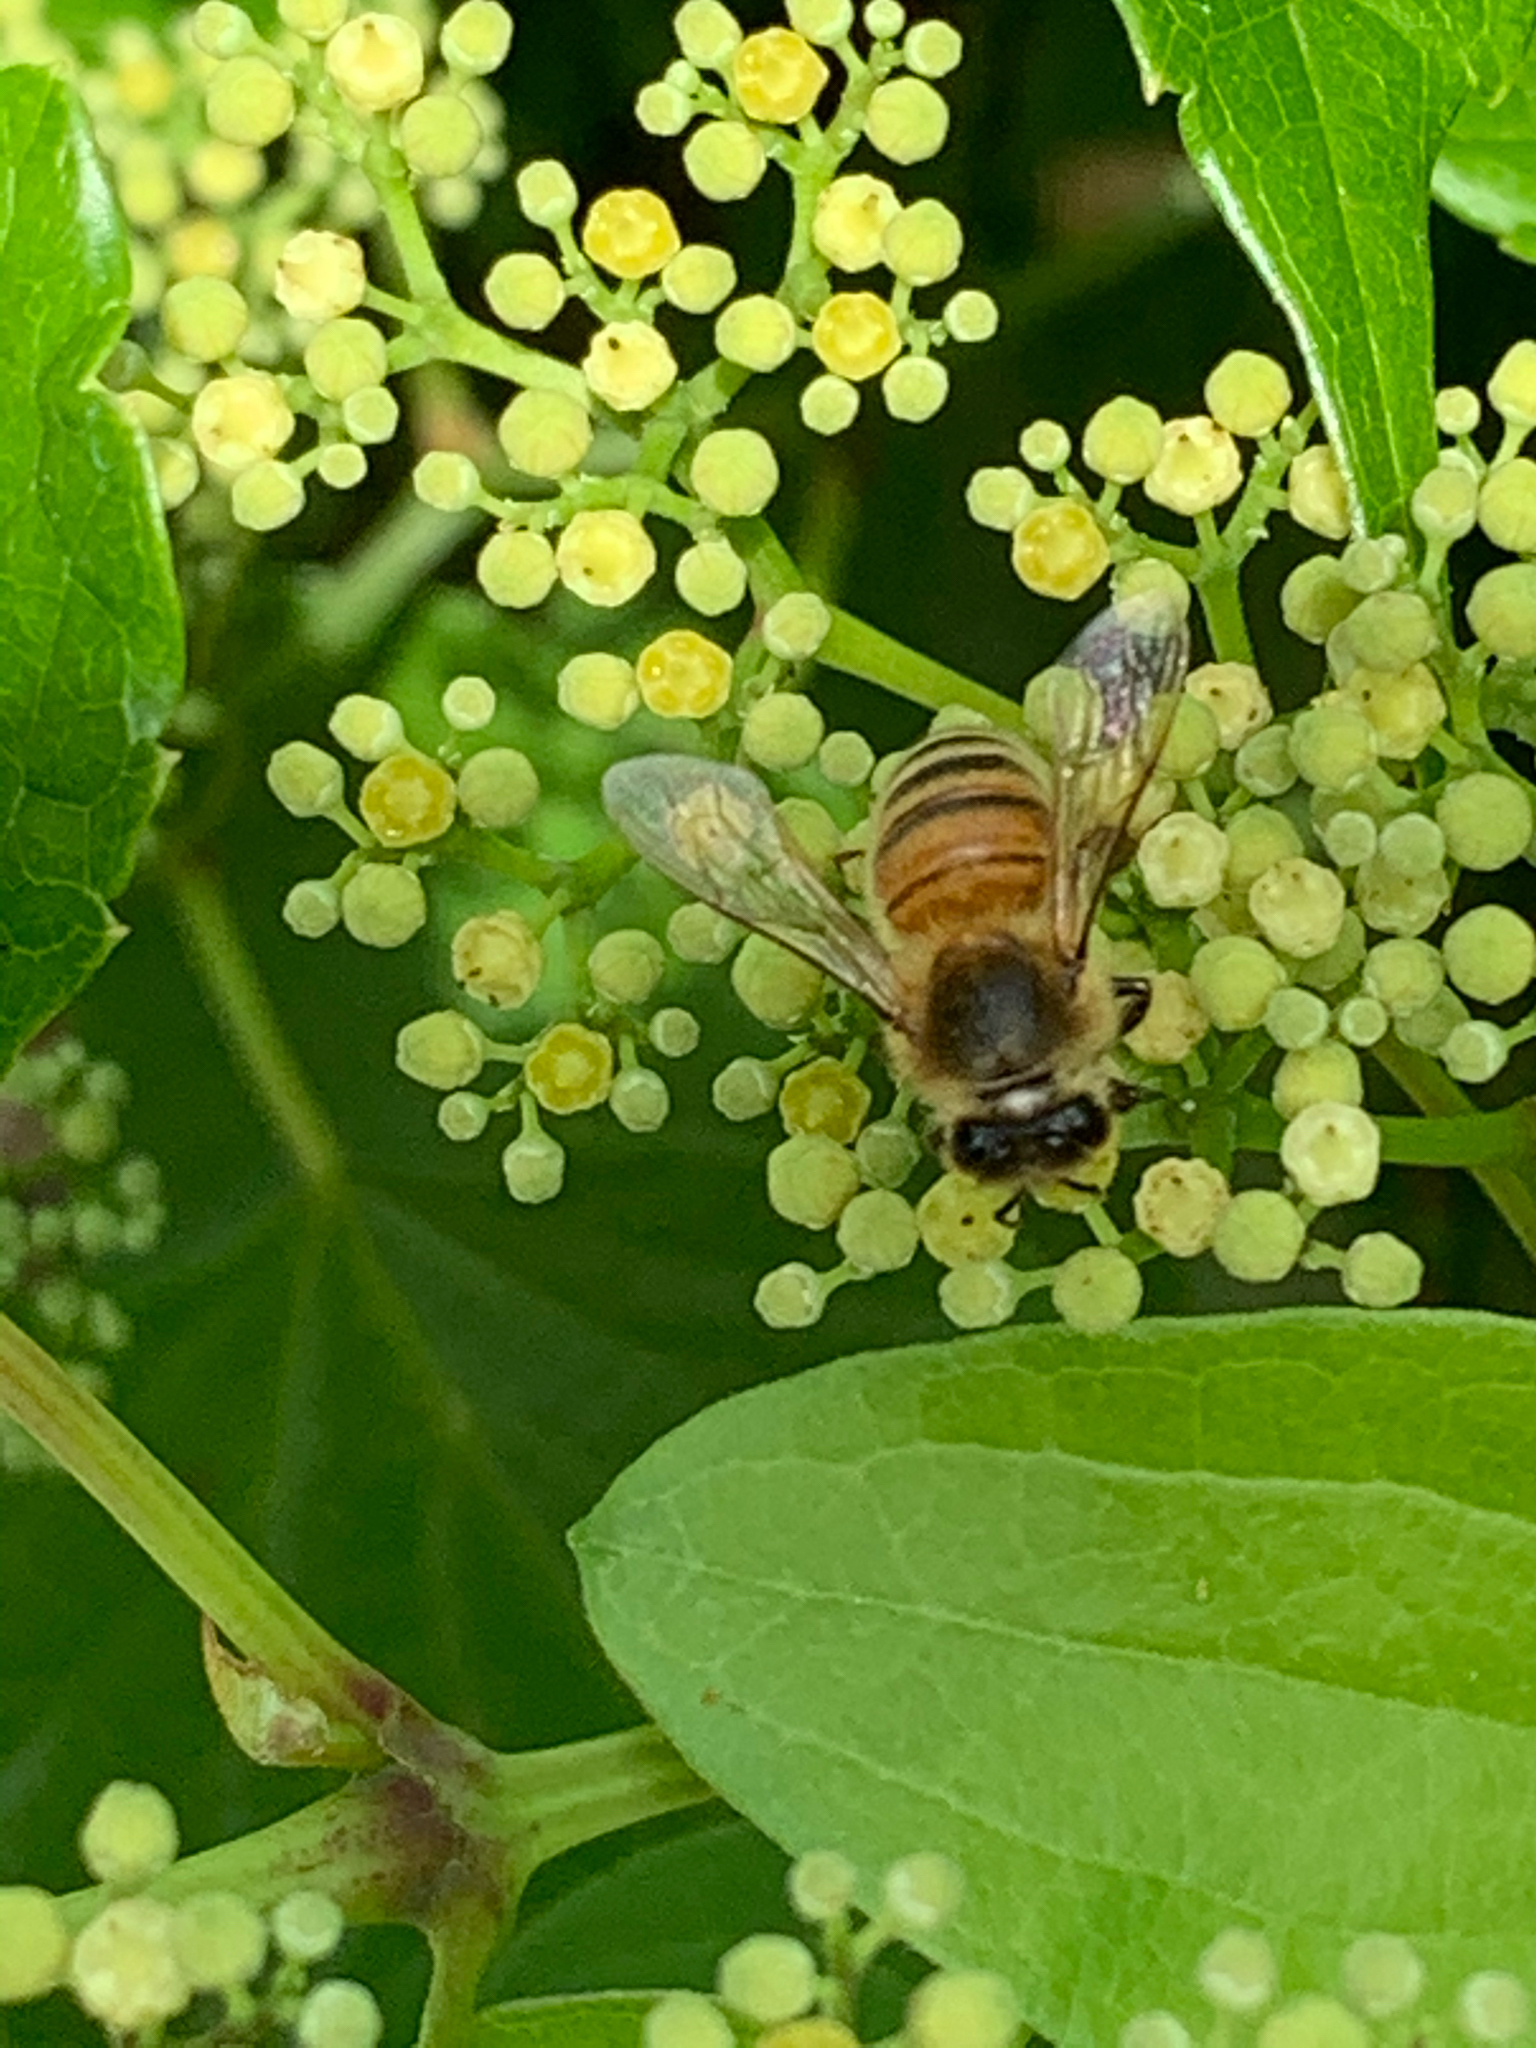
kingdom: Animalia
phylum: Arthropoda
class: Insecta
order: Hymenoptera
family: Apidae
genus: Apis
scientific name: Apis mellifera
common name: Honey bee
